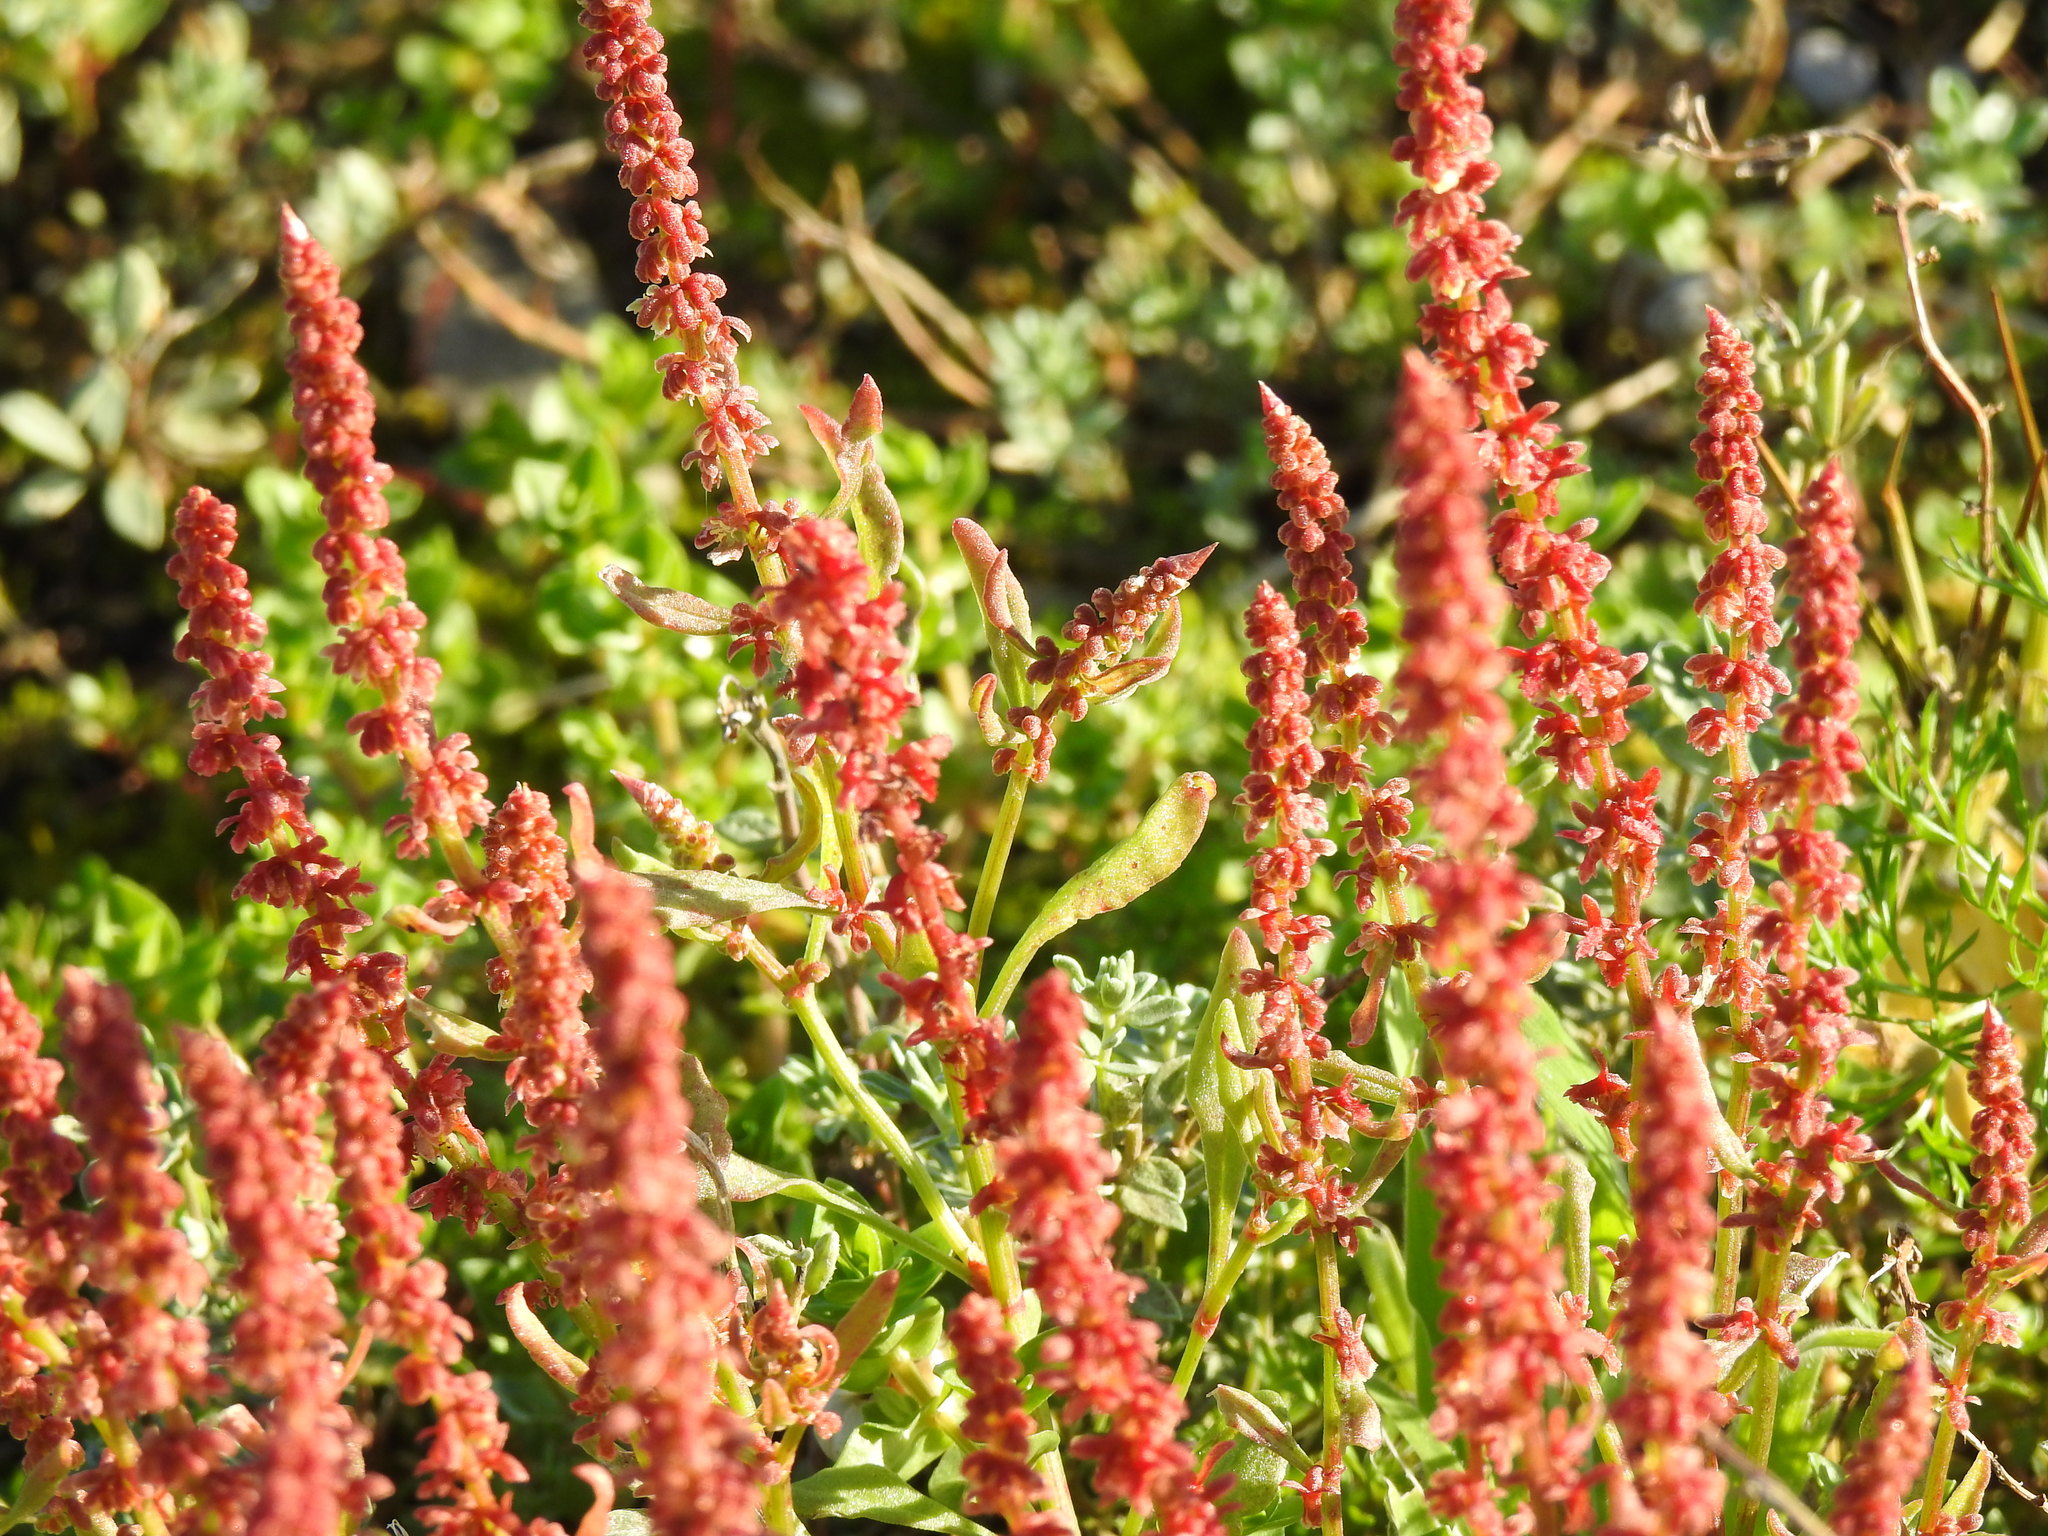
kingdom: Plantae
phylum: Tracheophyta
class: Magnoliopsida
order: Caryophyllales
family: Polygonaceae
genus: Rumex
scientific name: Rumex bucephalophorus
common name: Red dock
